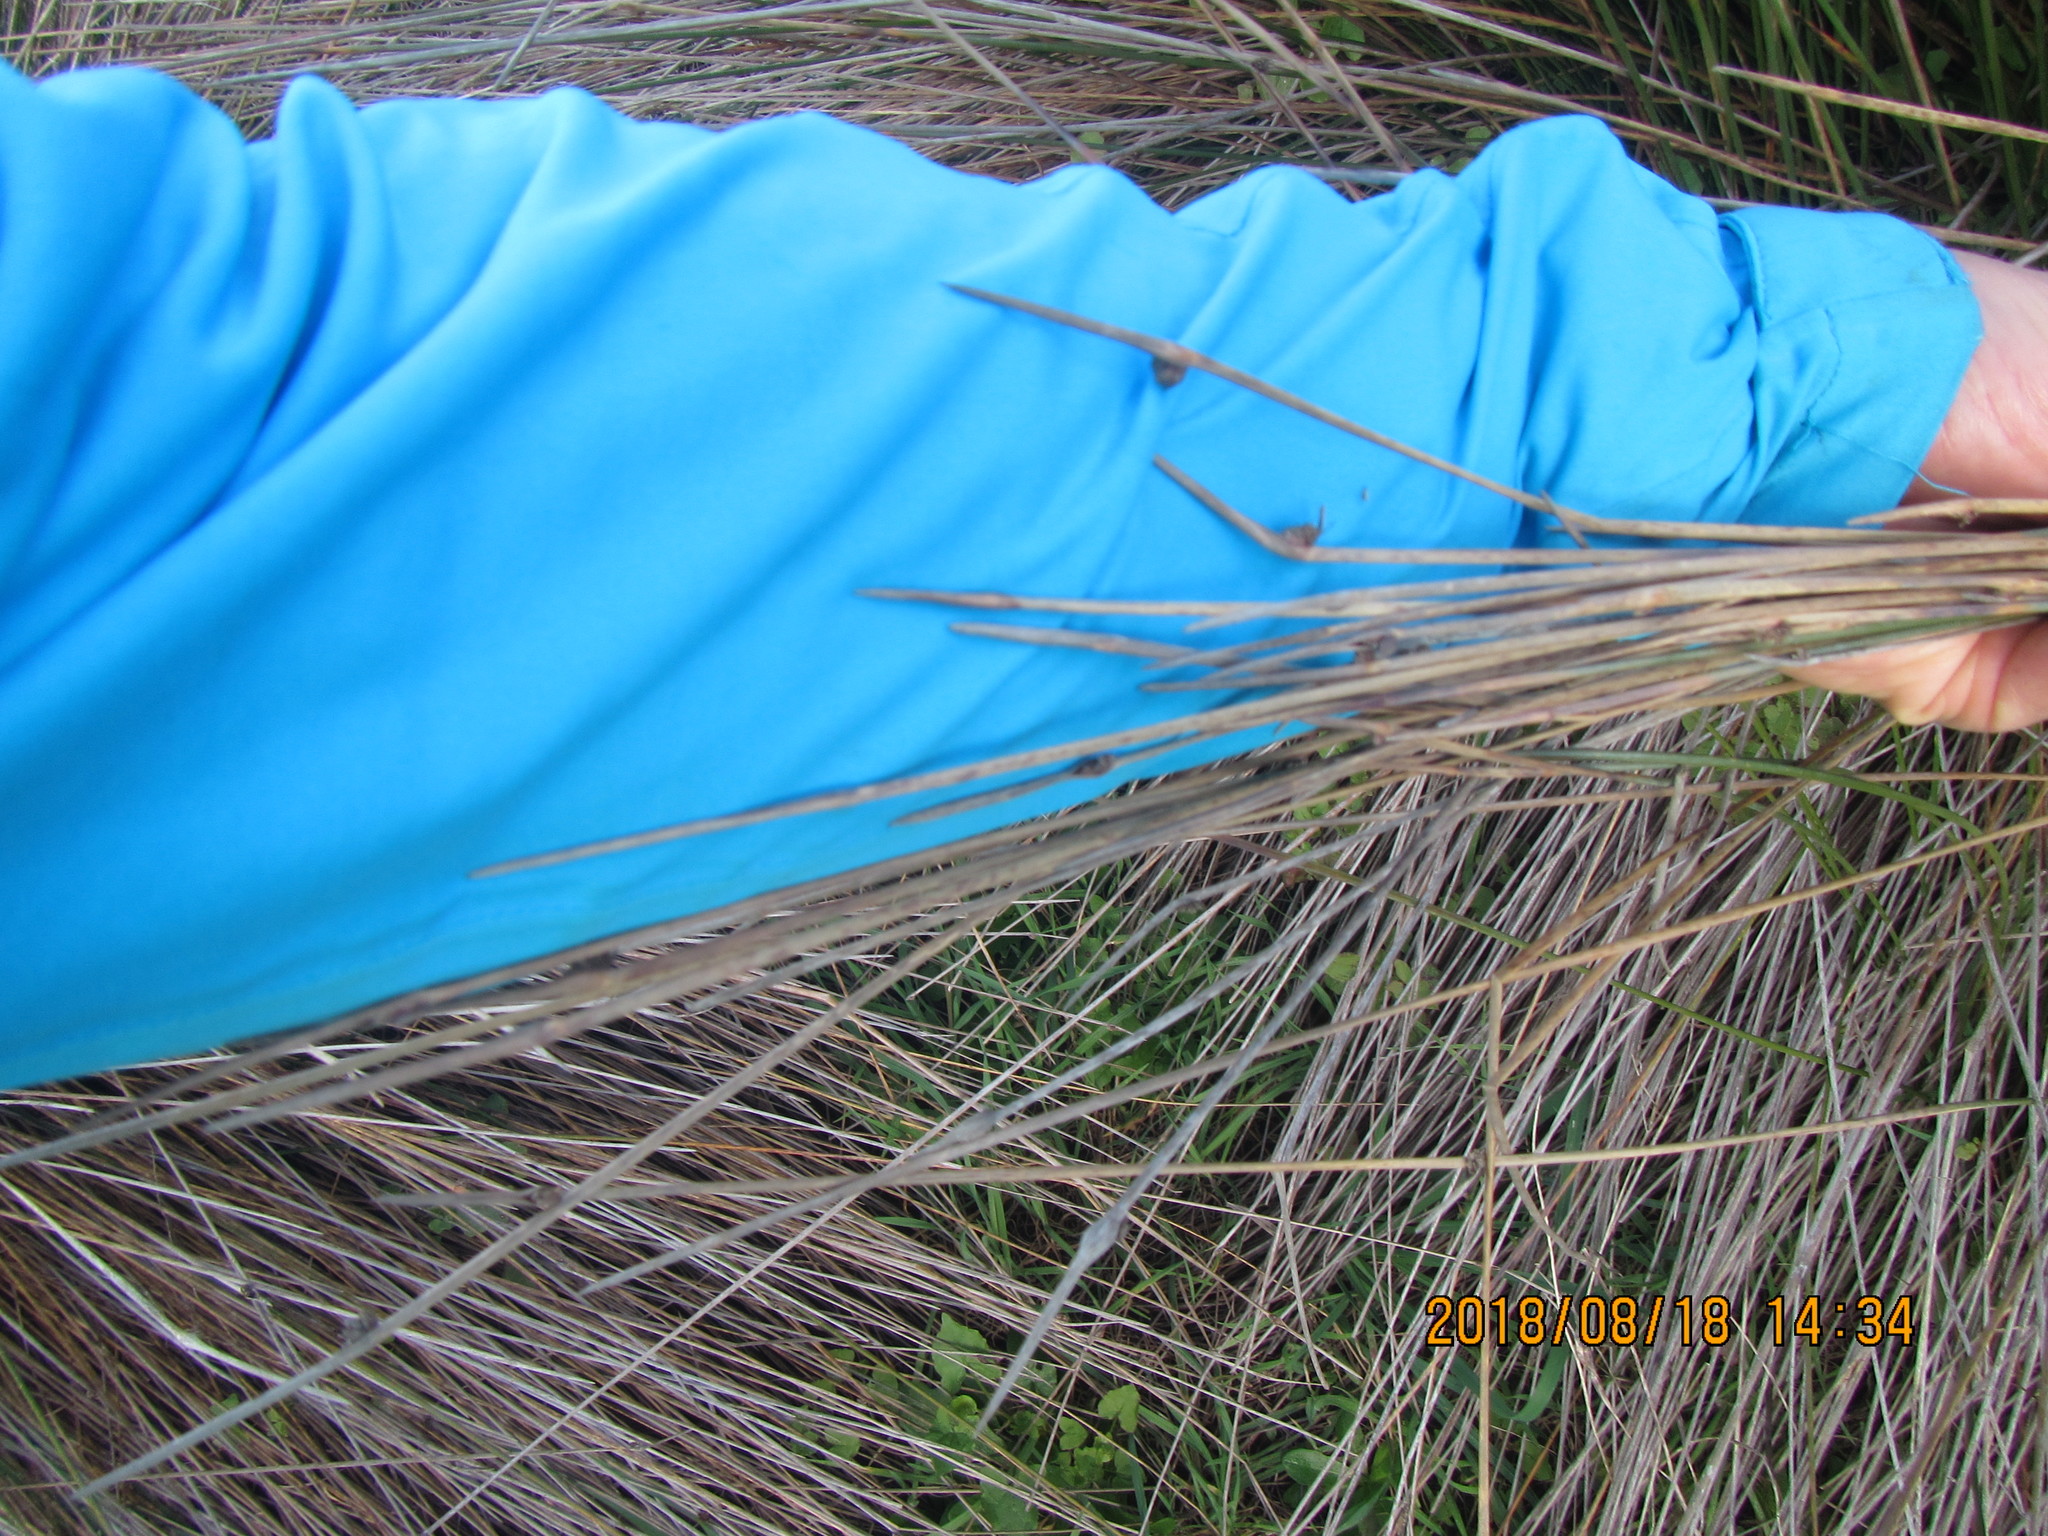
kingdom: Plantae
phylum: Tracheophyta
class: Liliopsida
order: Poales
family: Cyperaceae
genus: Ficinia
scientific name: Ficinia nodosa
